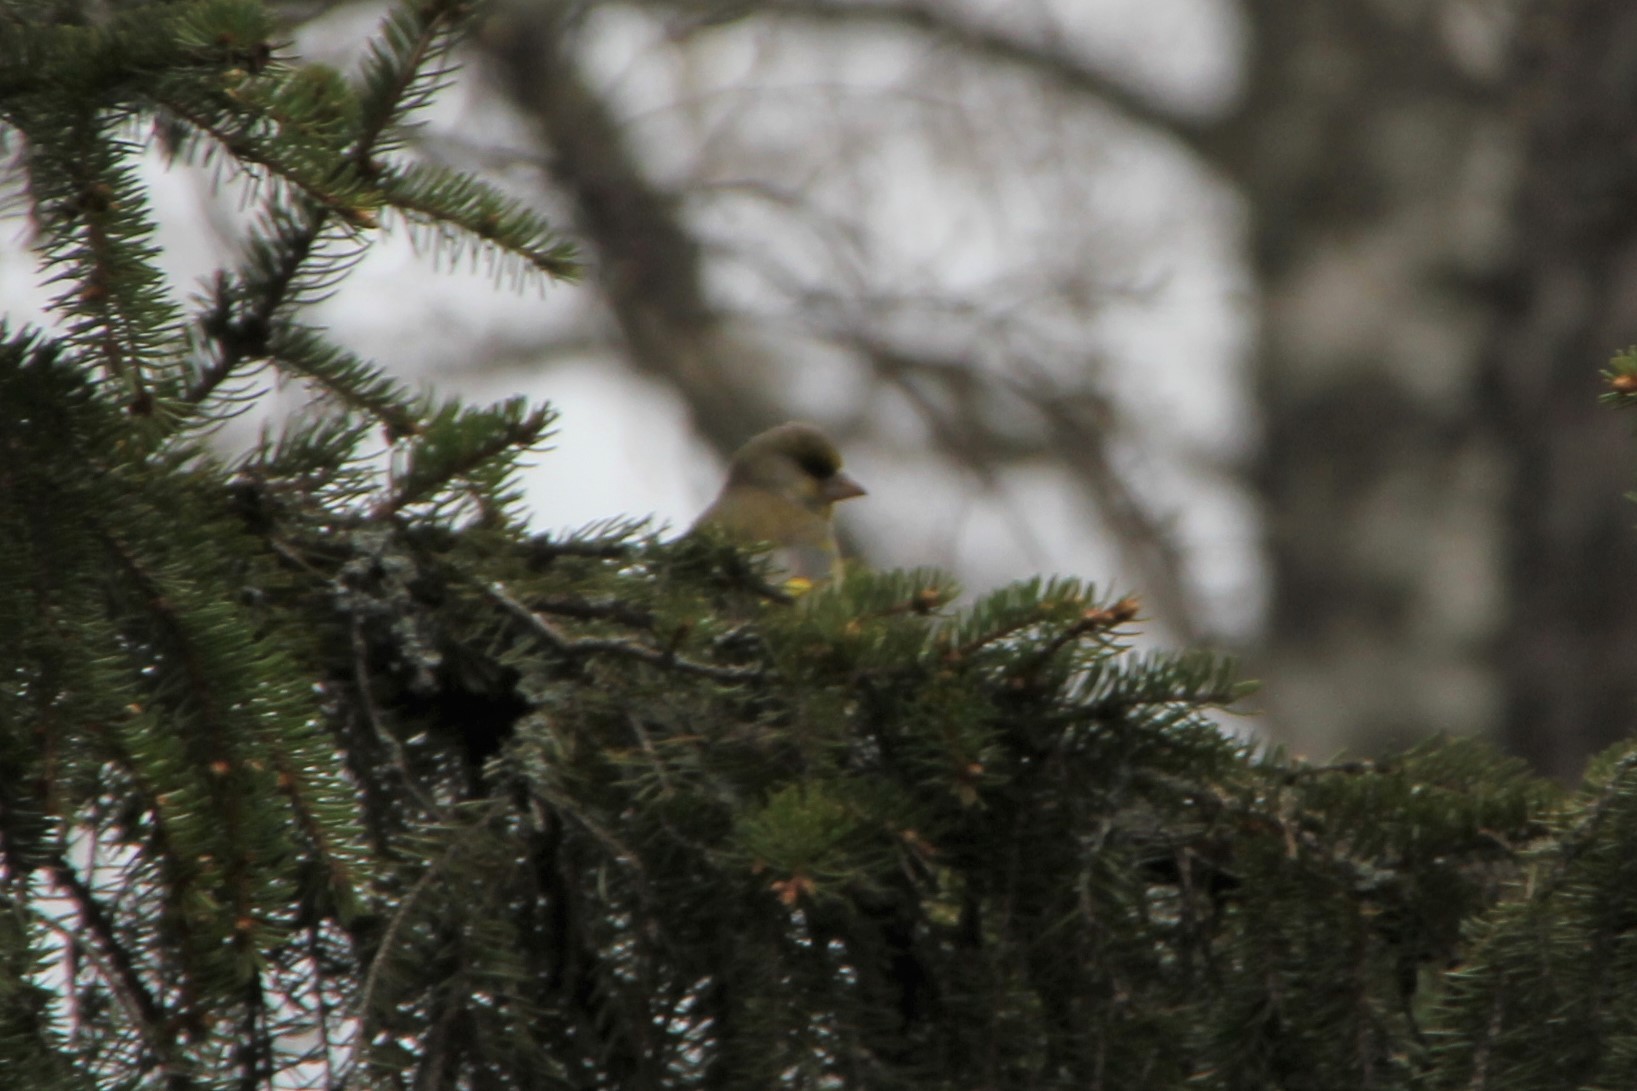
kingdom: Plantae
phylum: Tracheophyta
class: Liliopsida
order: Poales
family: Poaceae
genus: Chloris
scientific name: Chloris chloris
